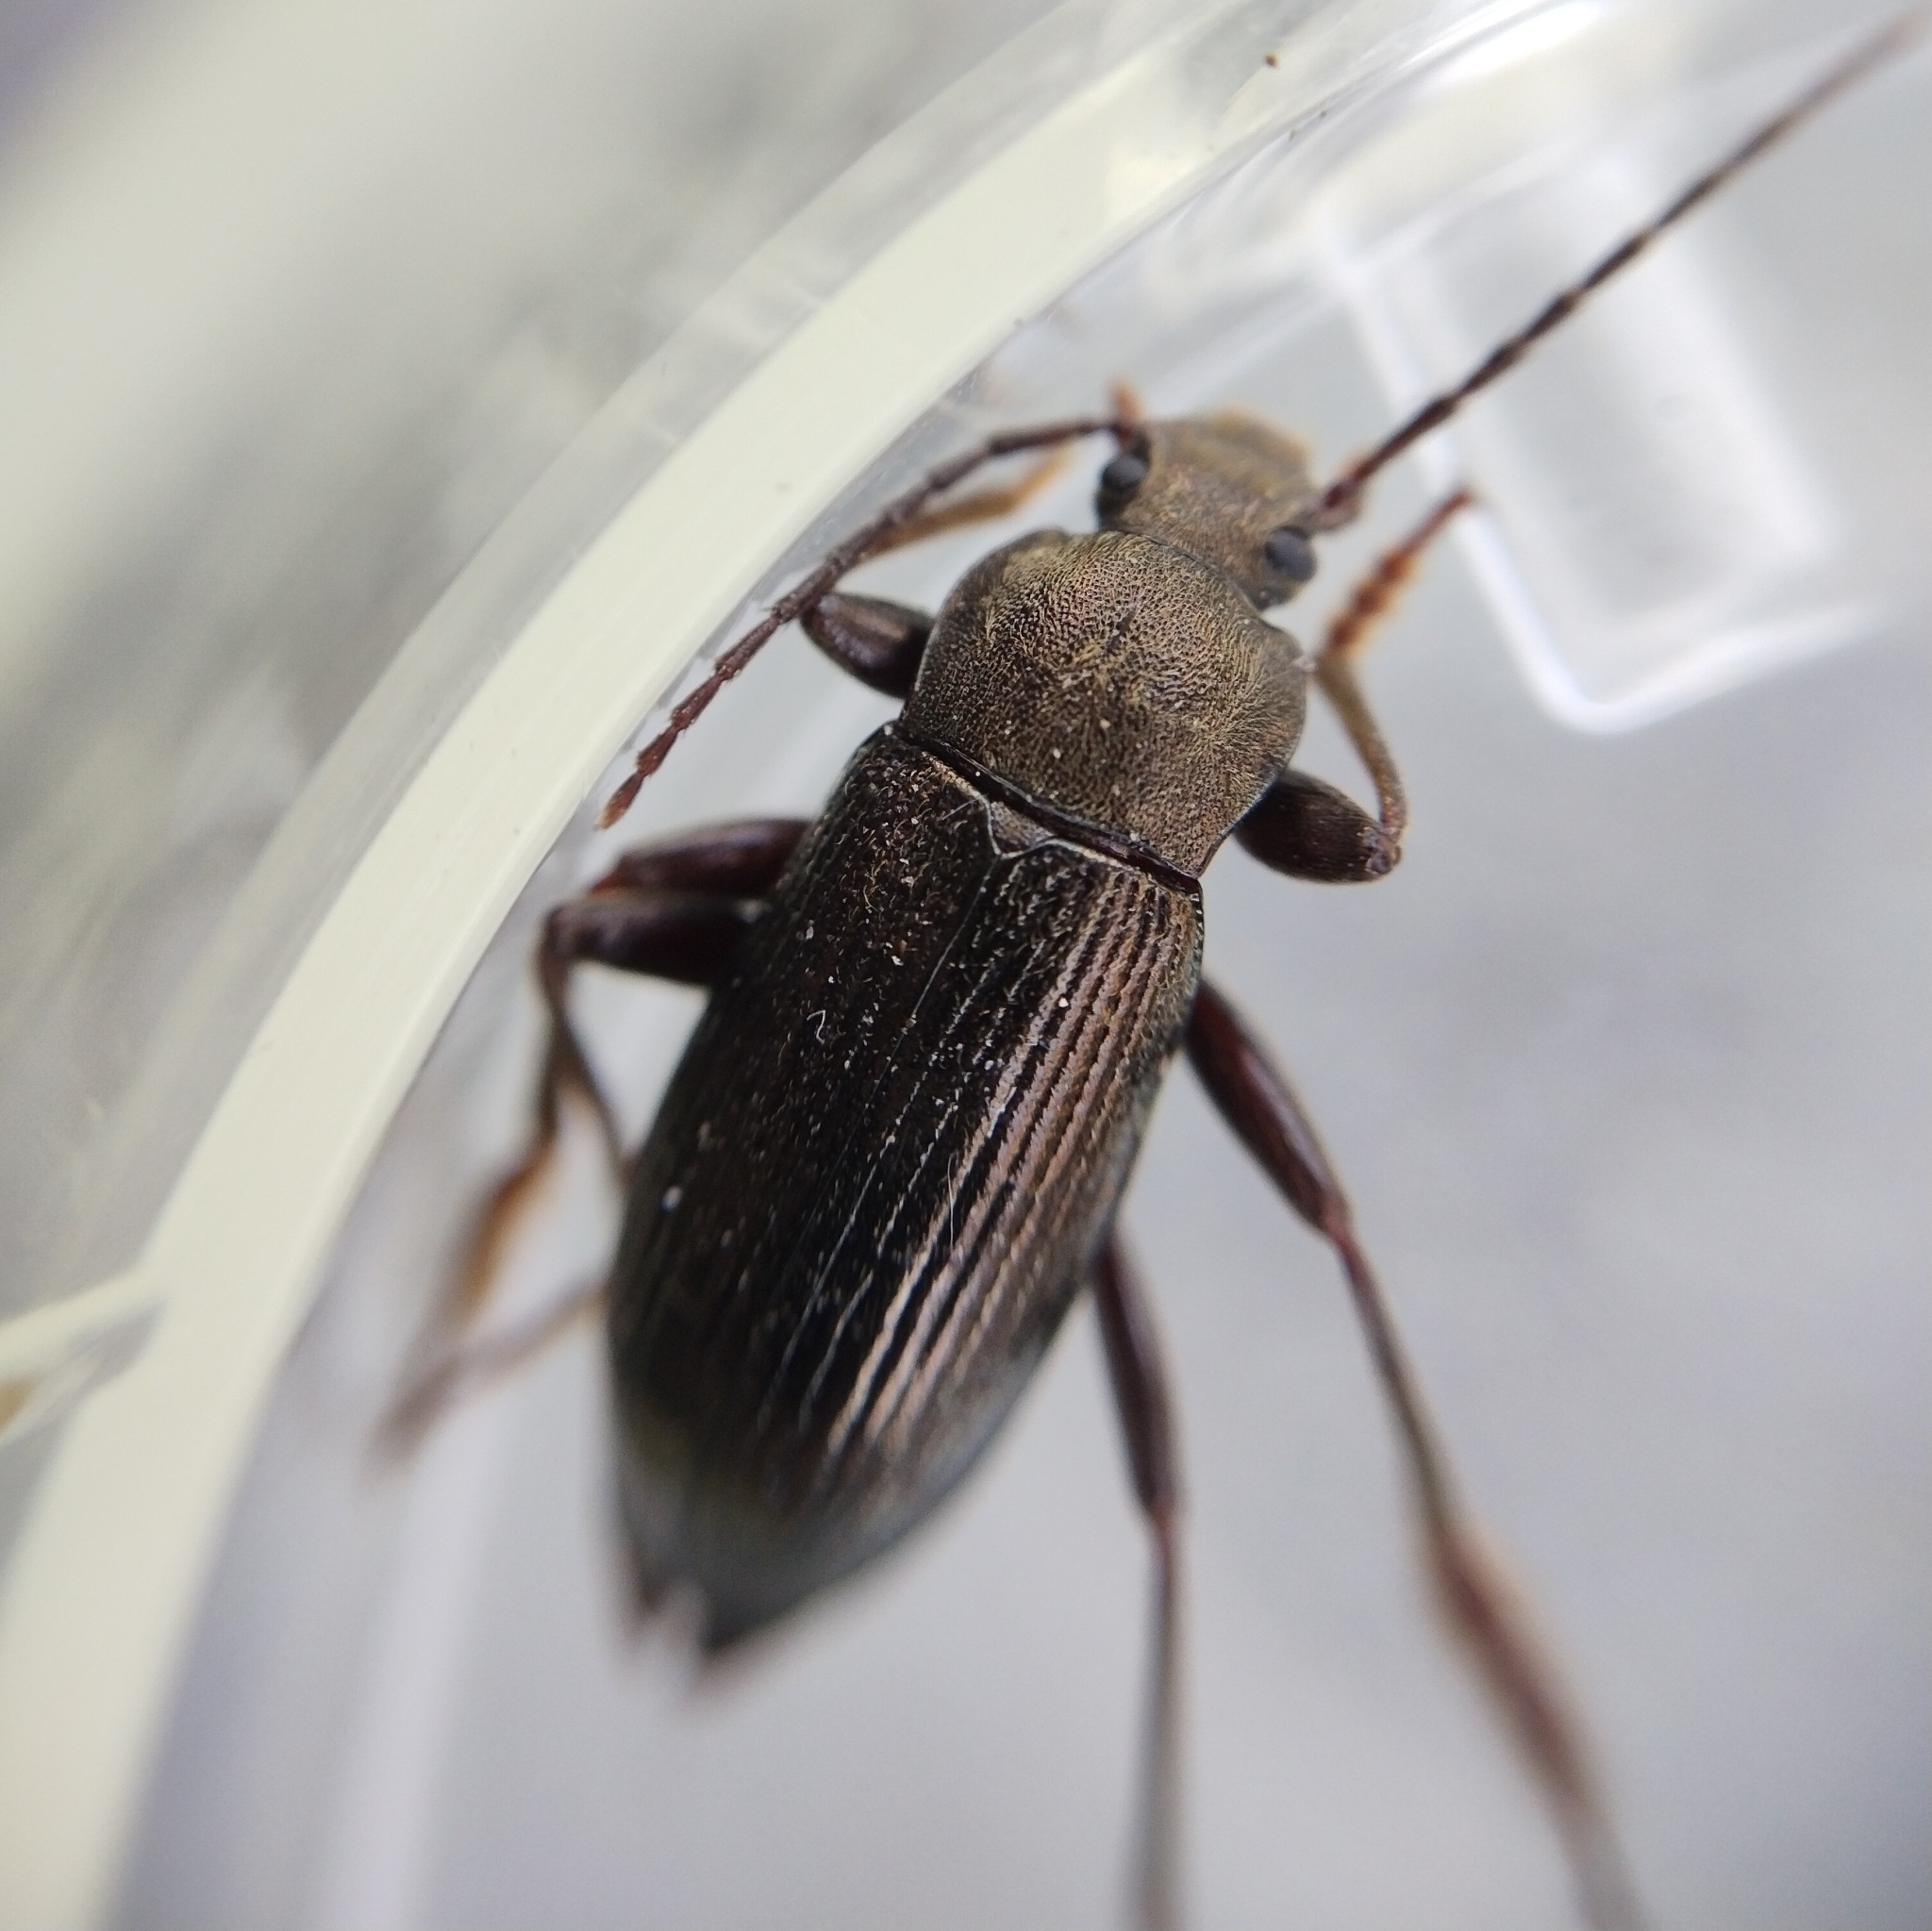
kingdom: Animalia
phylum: Arthropoda
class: Insecta
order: Coleoptera
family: Tenebrionidae
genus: Stenomax
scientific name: Stenomax aeneus
